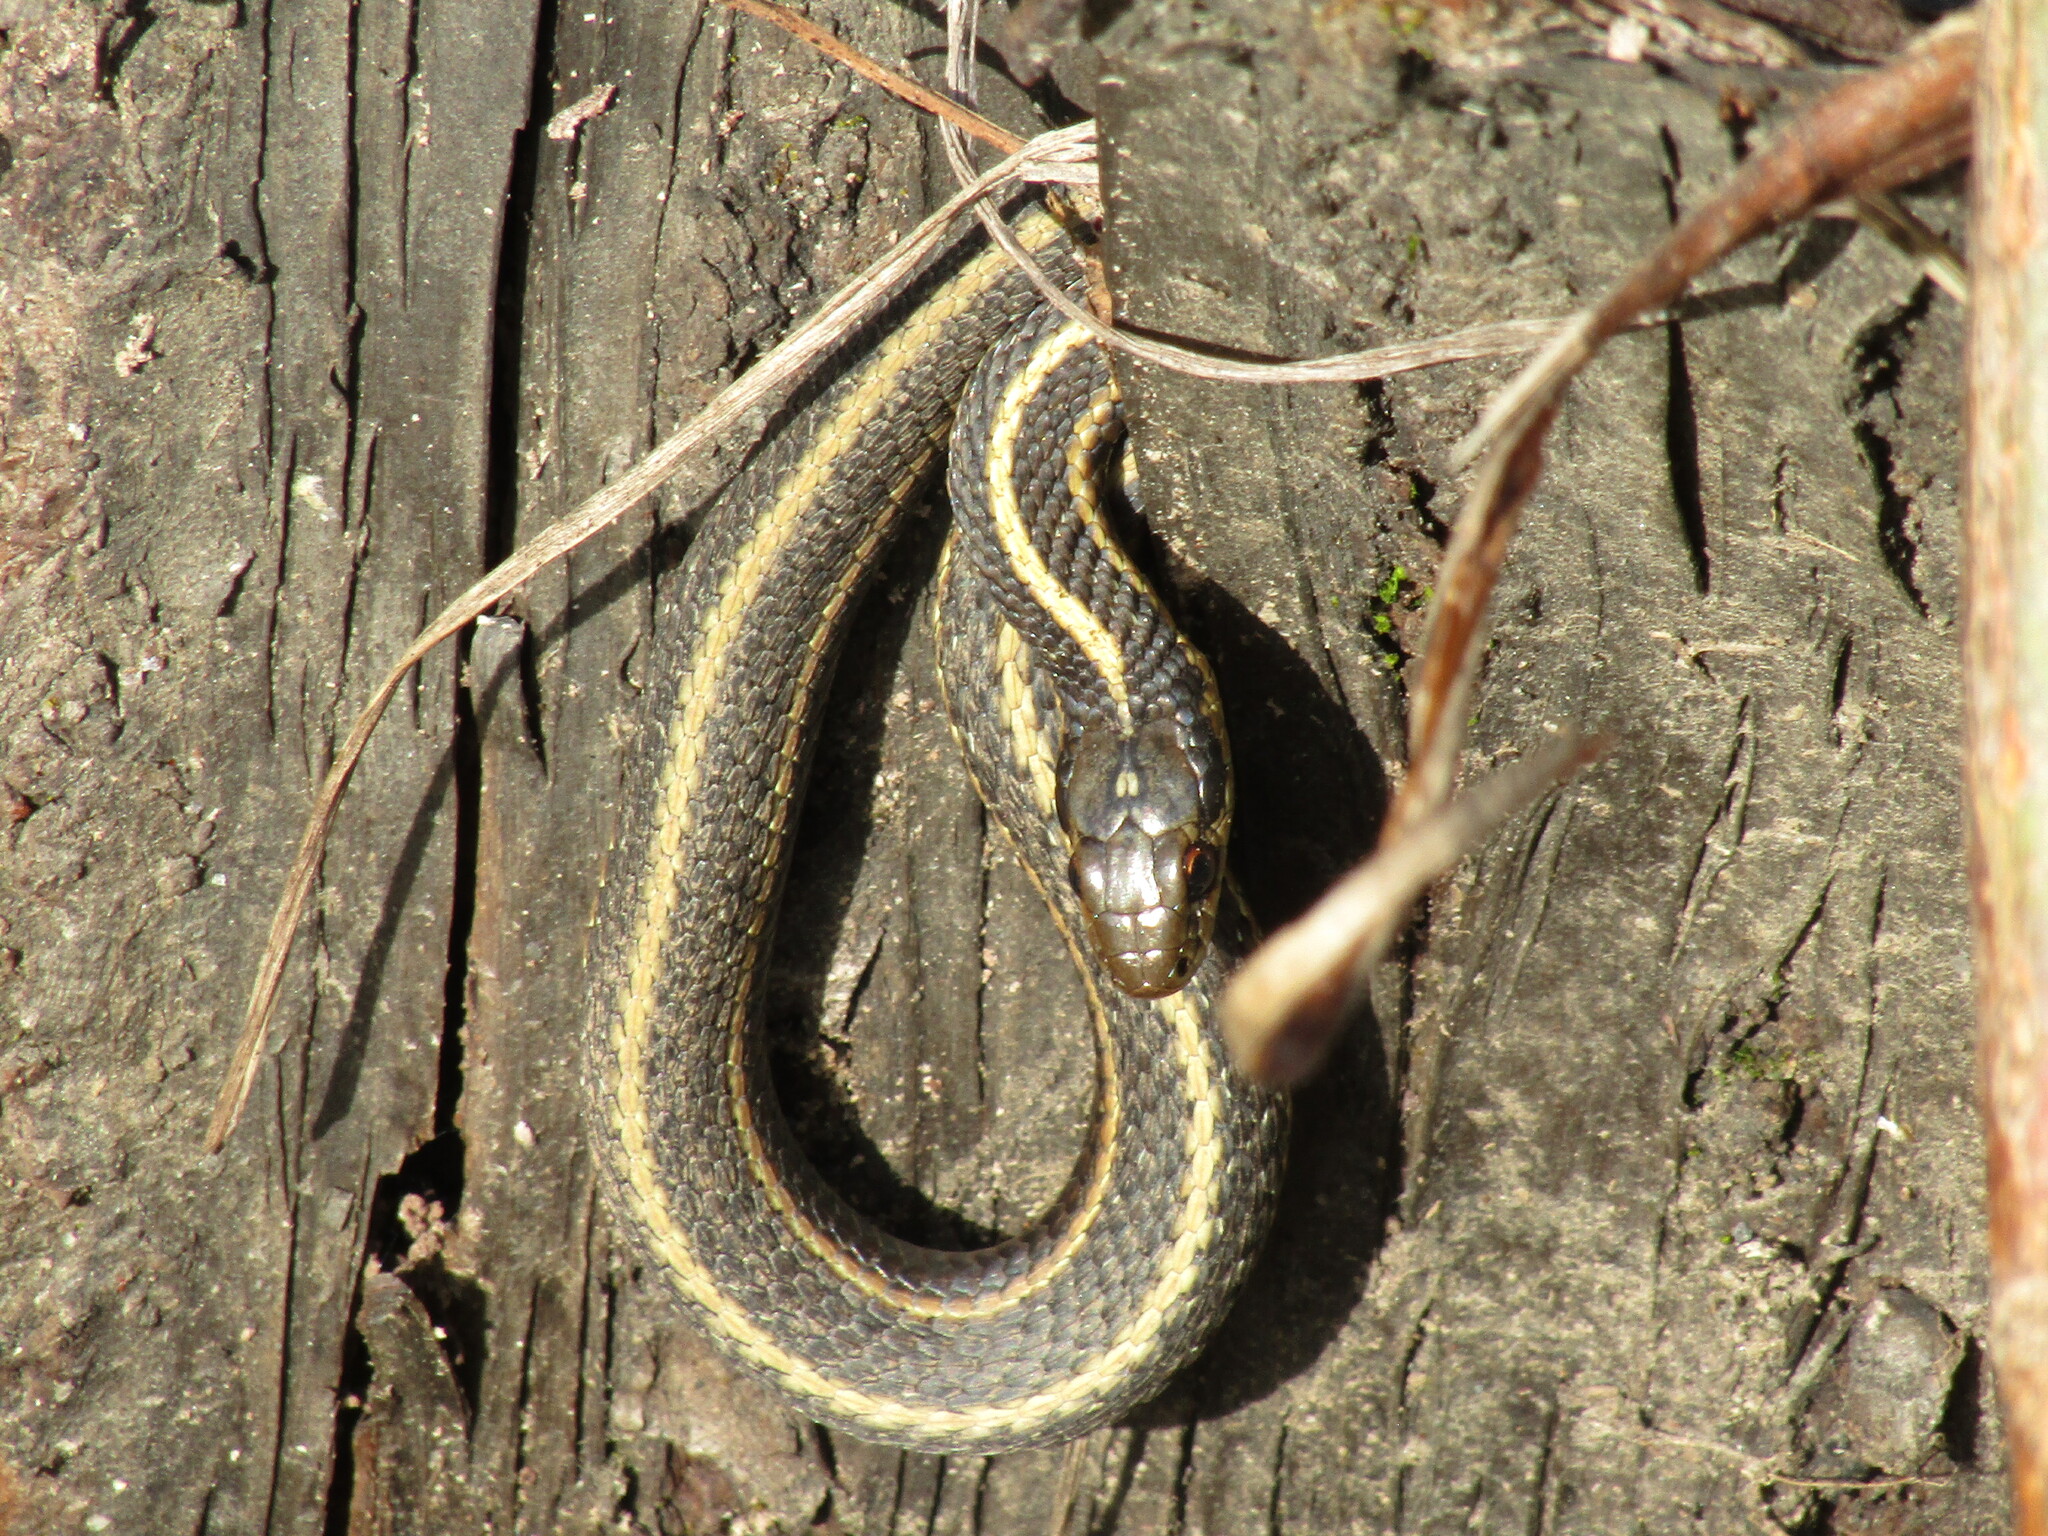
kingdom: Animalia
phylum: Chordata
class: Squamata
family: Colubridae
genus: Thamnophis
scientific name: Thamnophis ordinoides
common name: Northwestern garter snake
